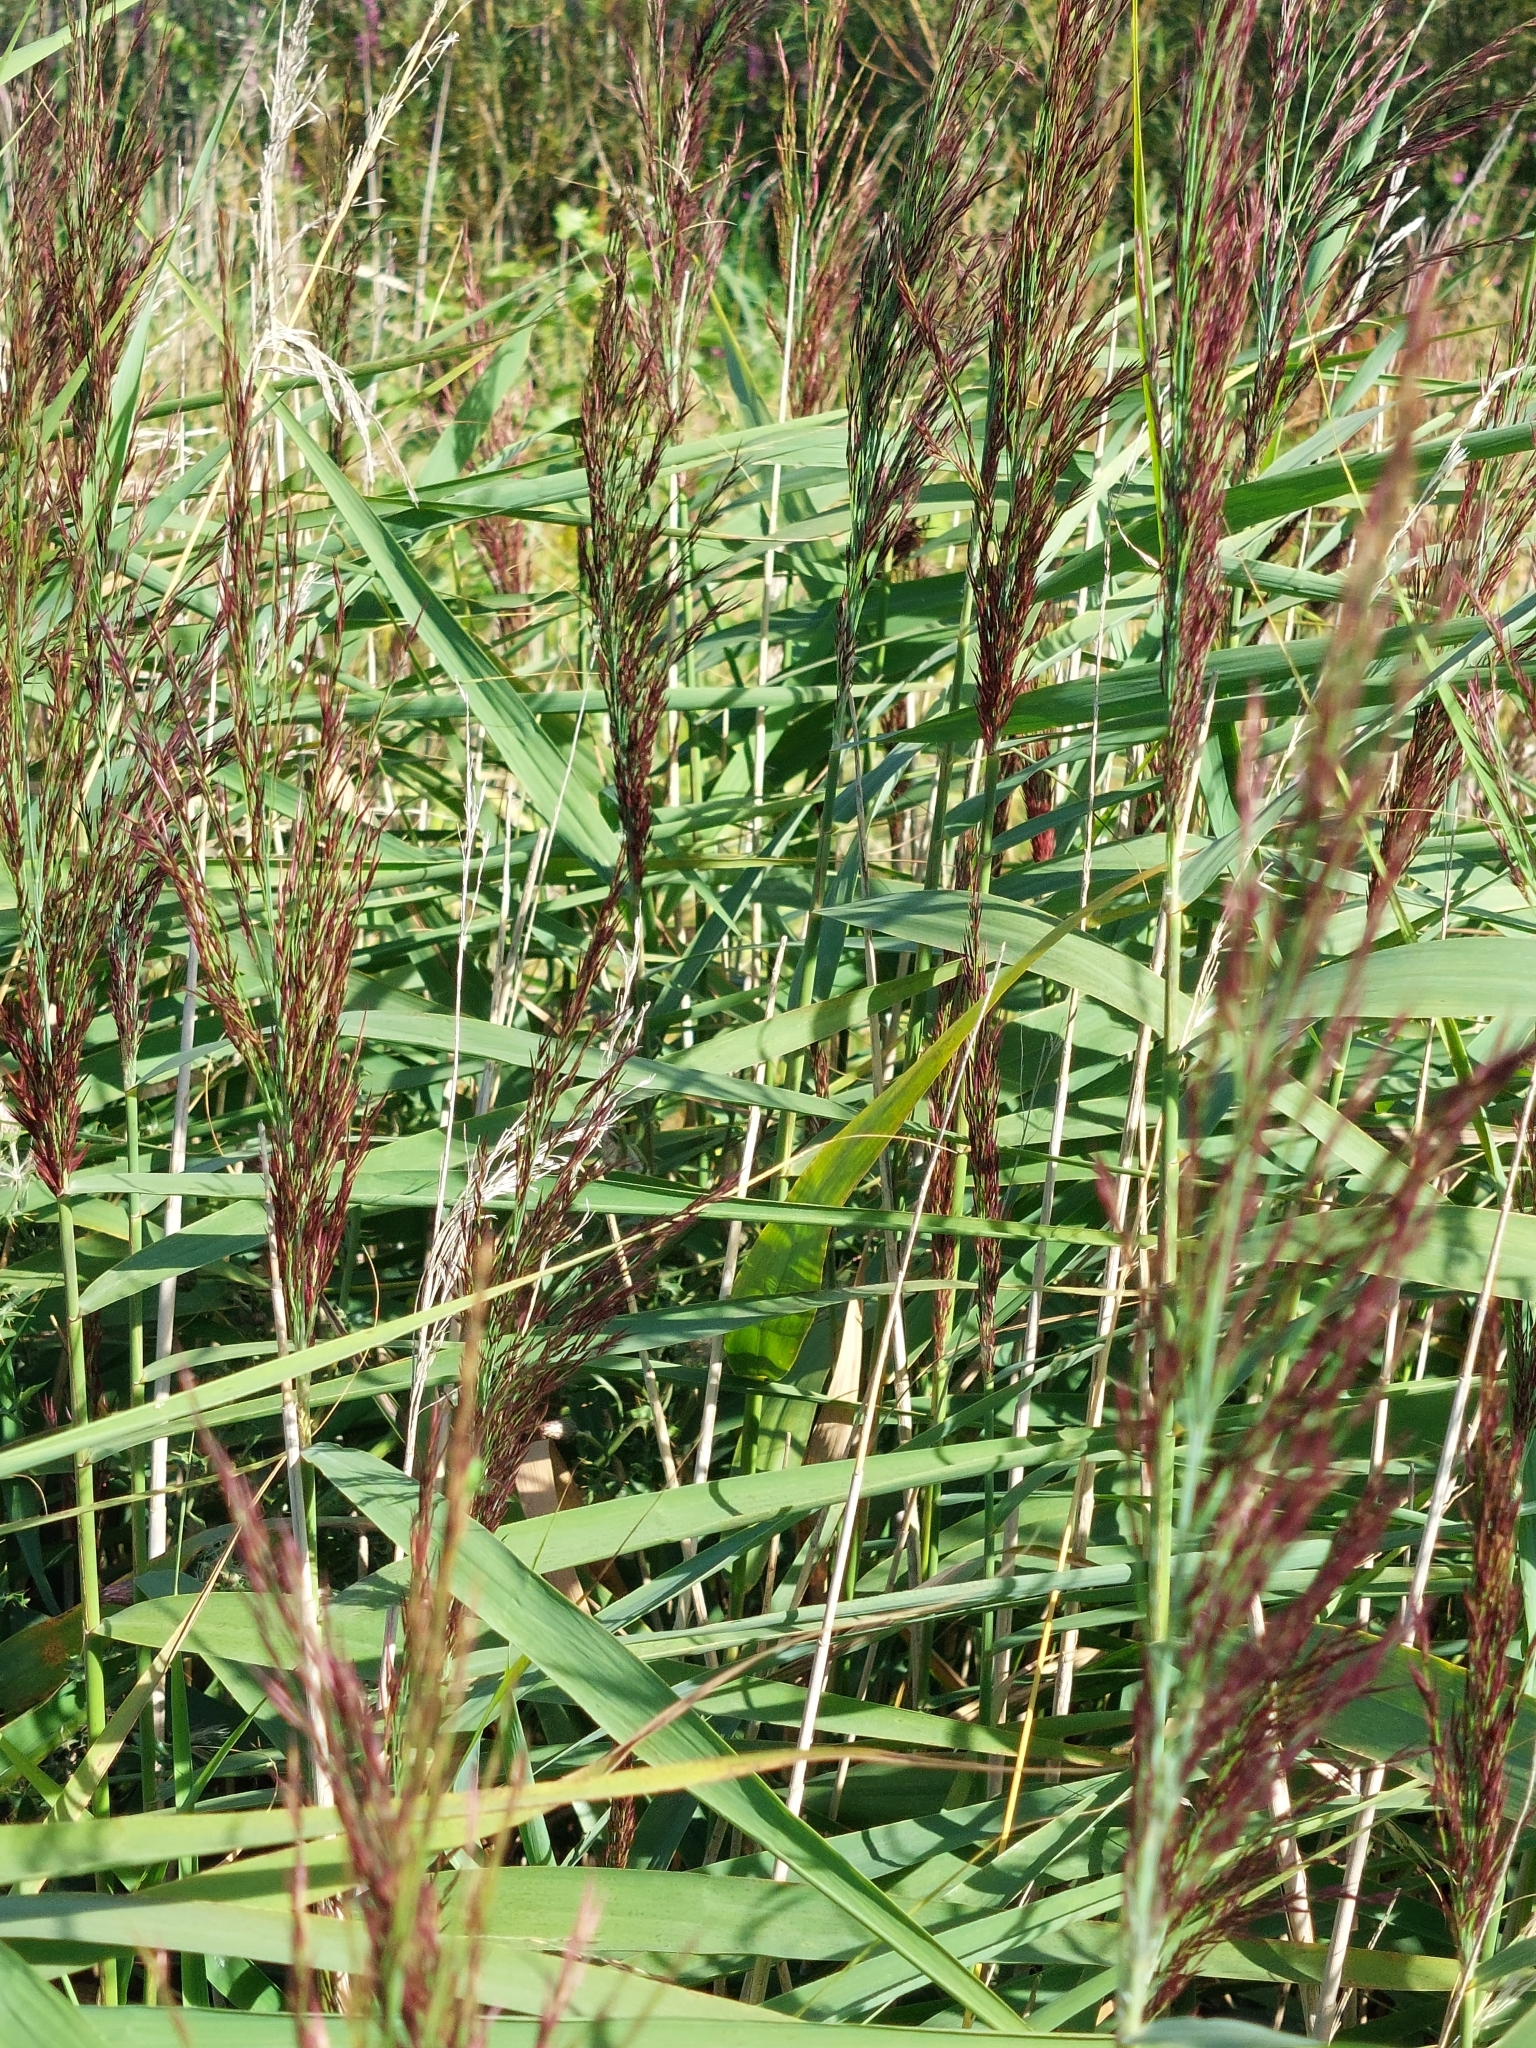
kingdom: Plantae
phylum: Tracheophyta
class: Liliopsida
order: Poales
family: Poaceae
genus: Phragmites
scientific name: Phragmites australis
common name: Common reed
